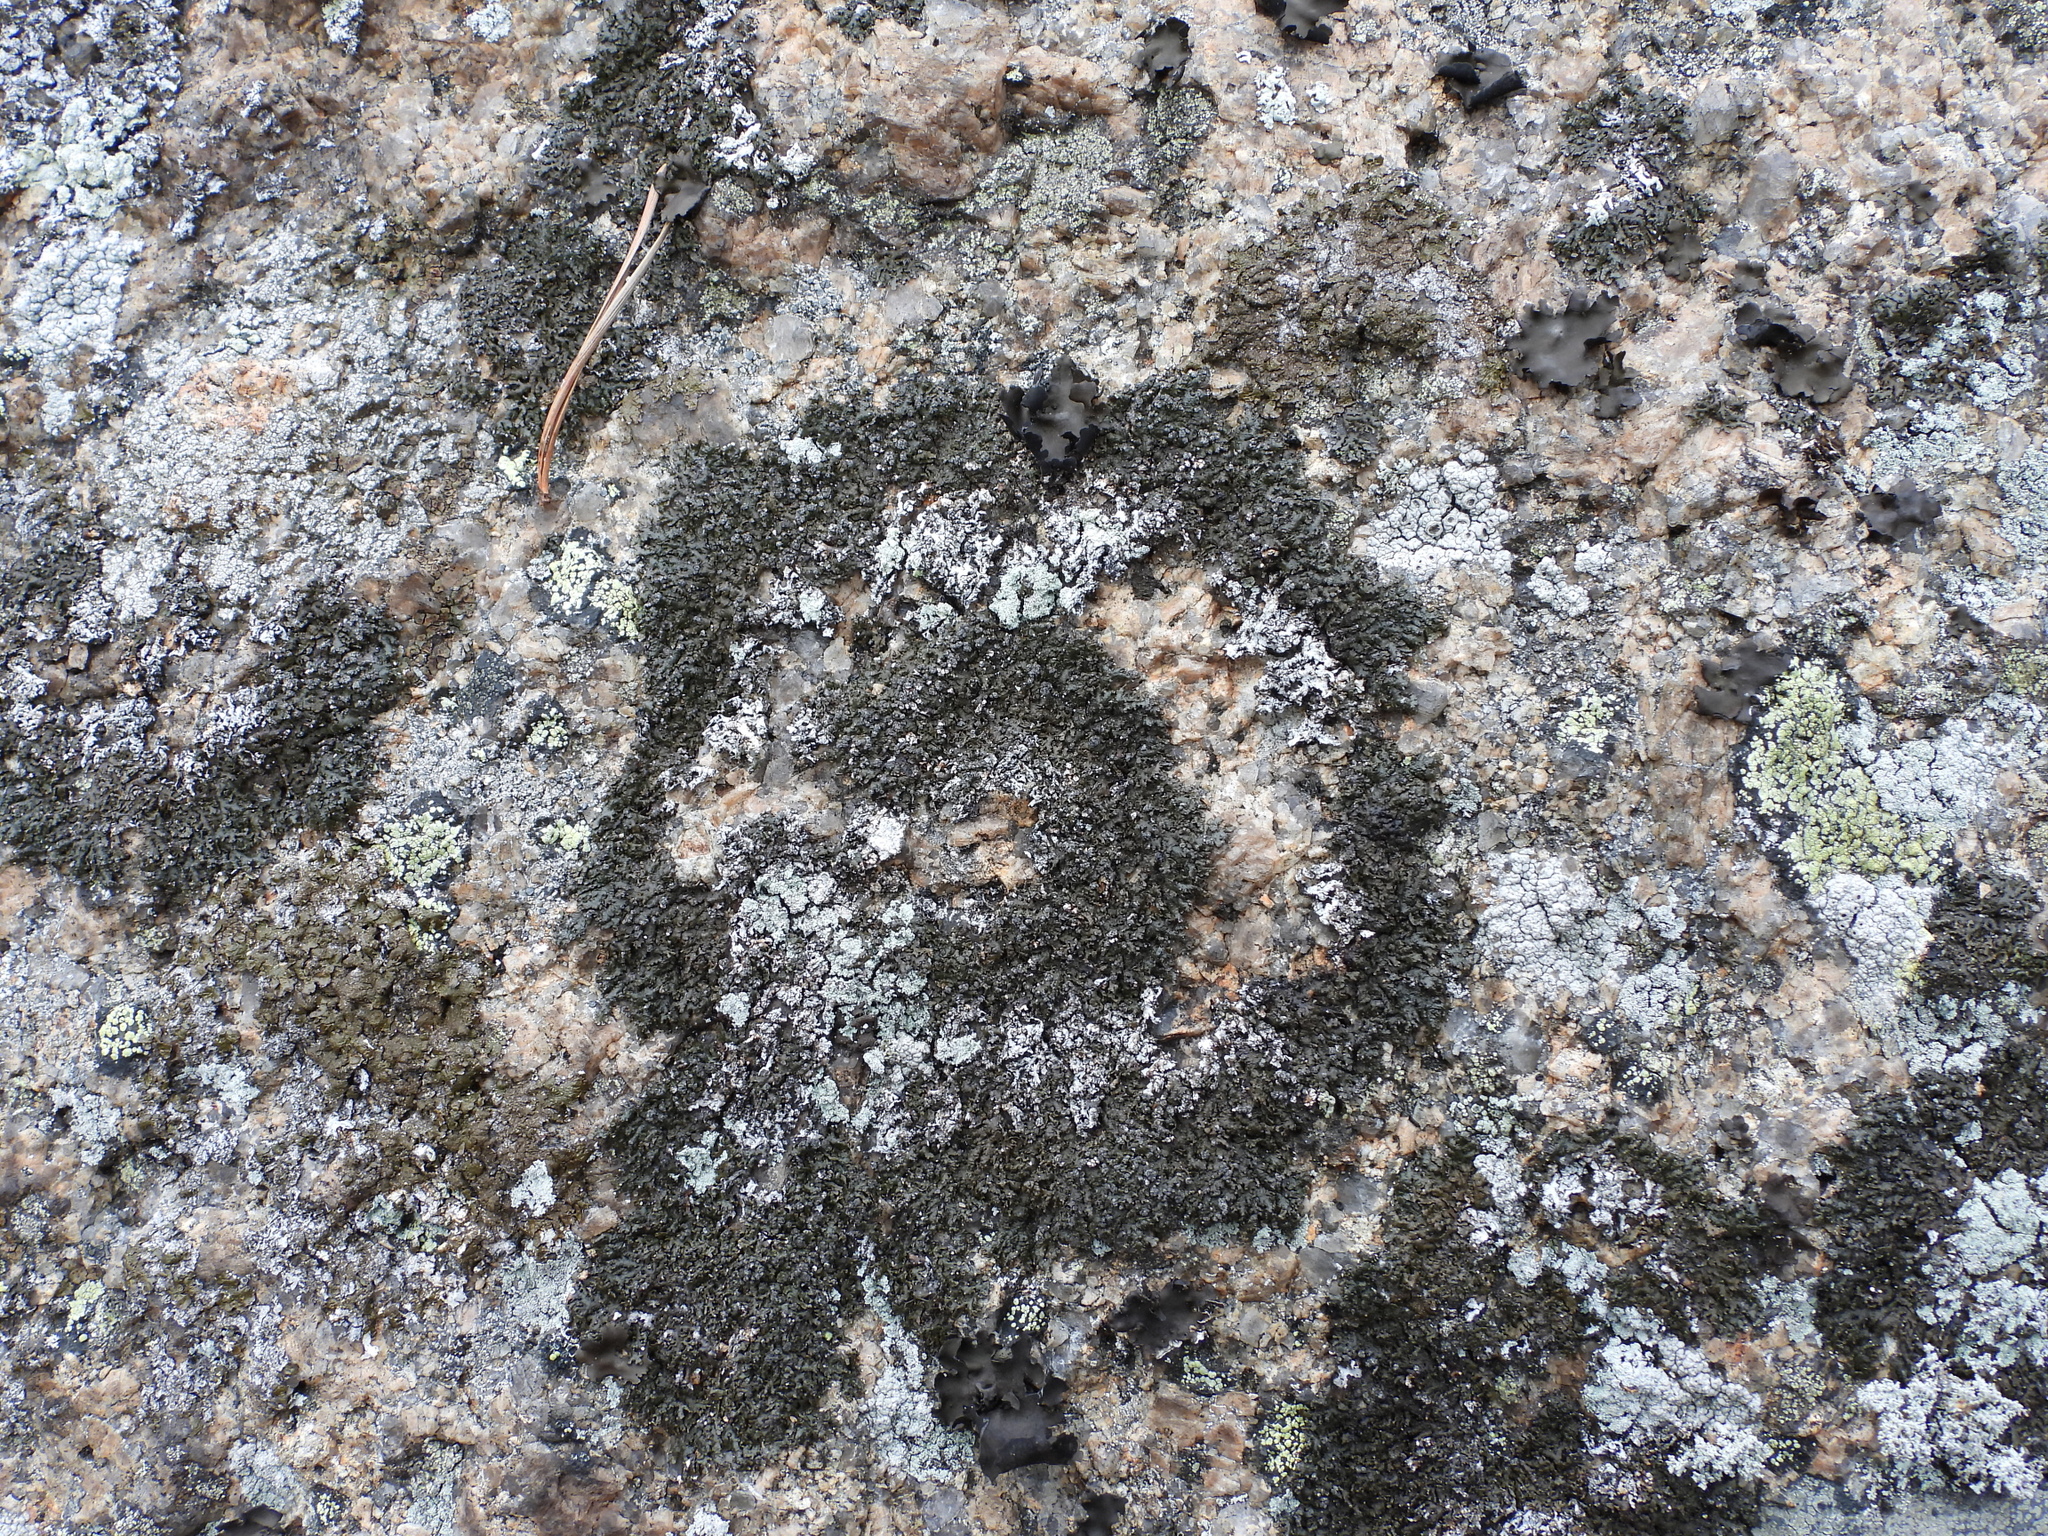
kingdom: Fungi
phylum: Ascomycota
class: Lecanoromycetes
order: Lecanorales
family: Parmeliaceae
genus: Montanelia
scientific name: Montanelia sorediata
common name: Powdered camouflage lichen
